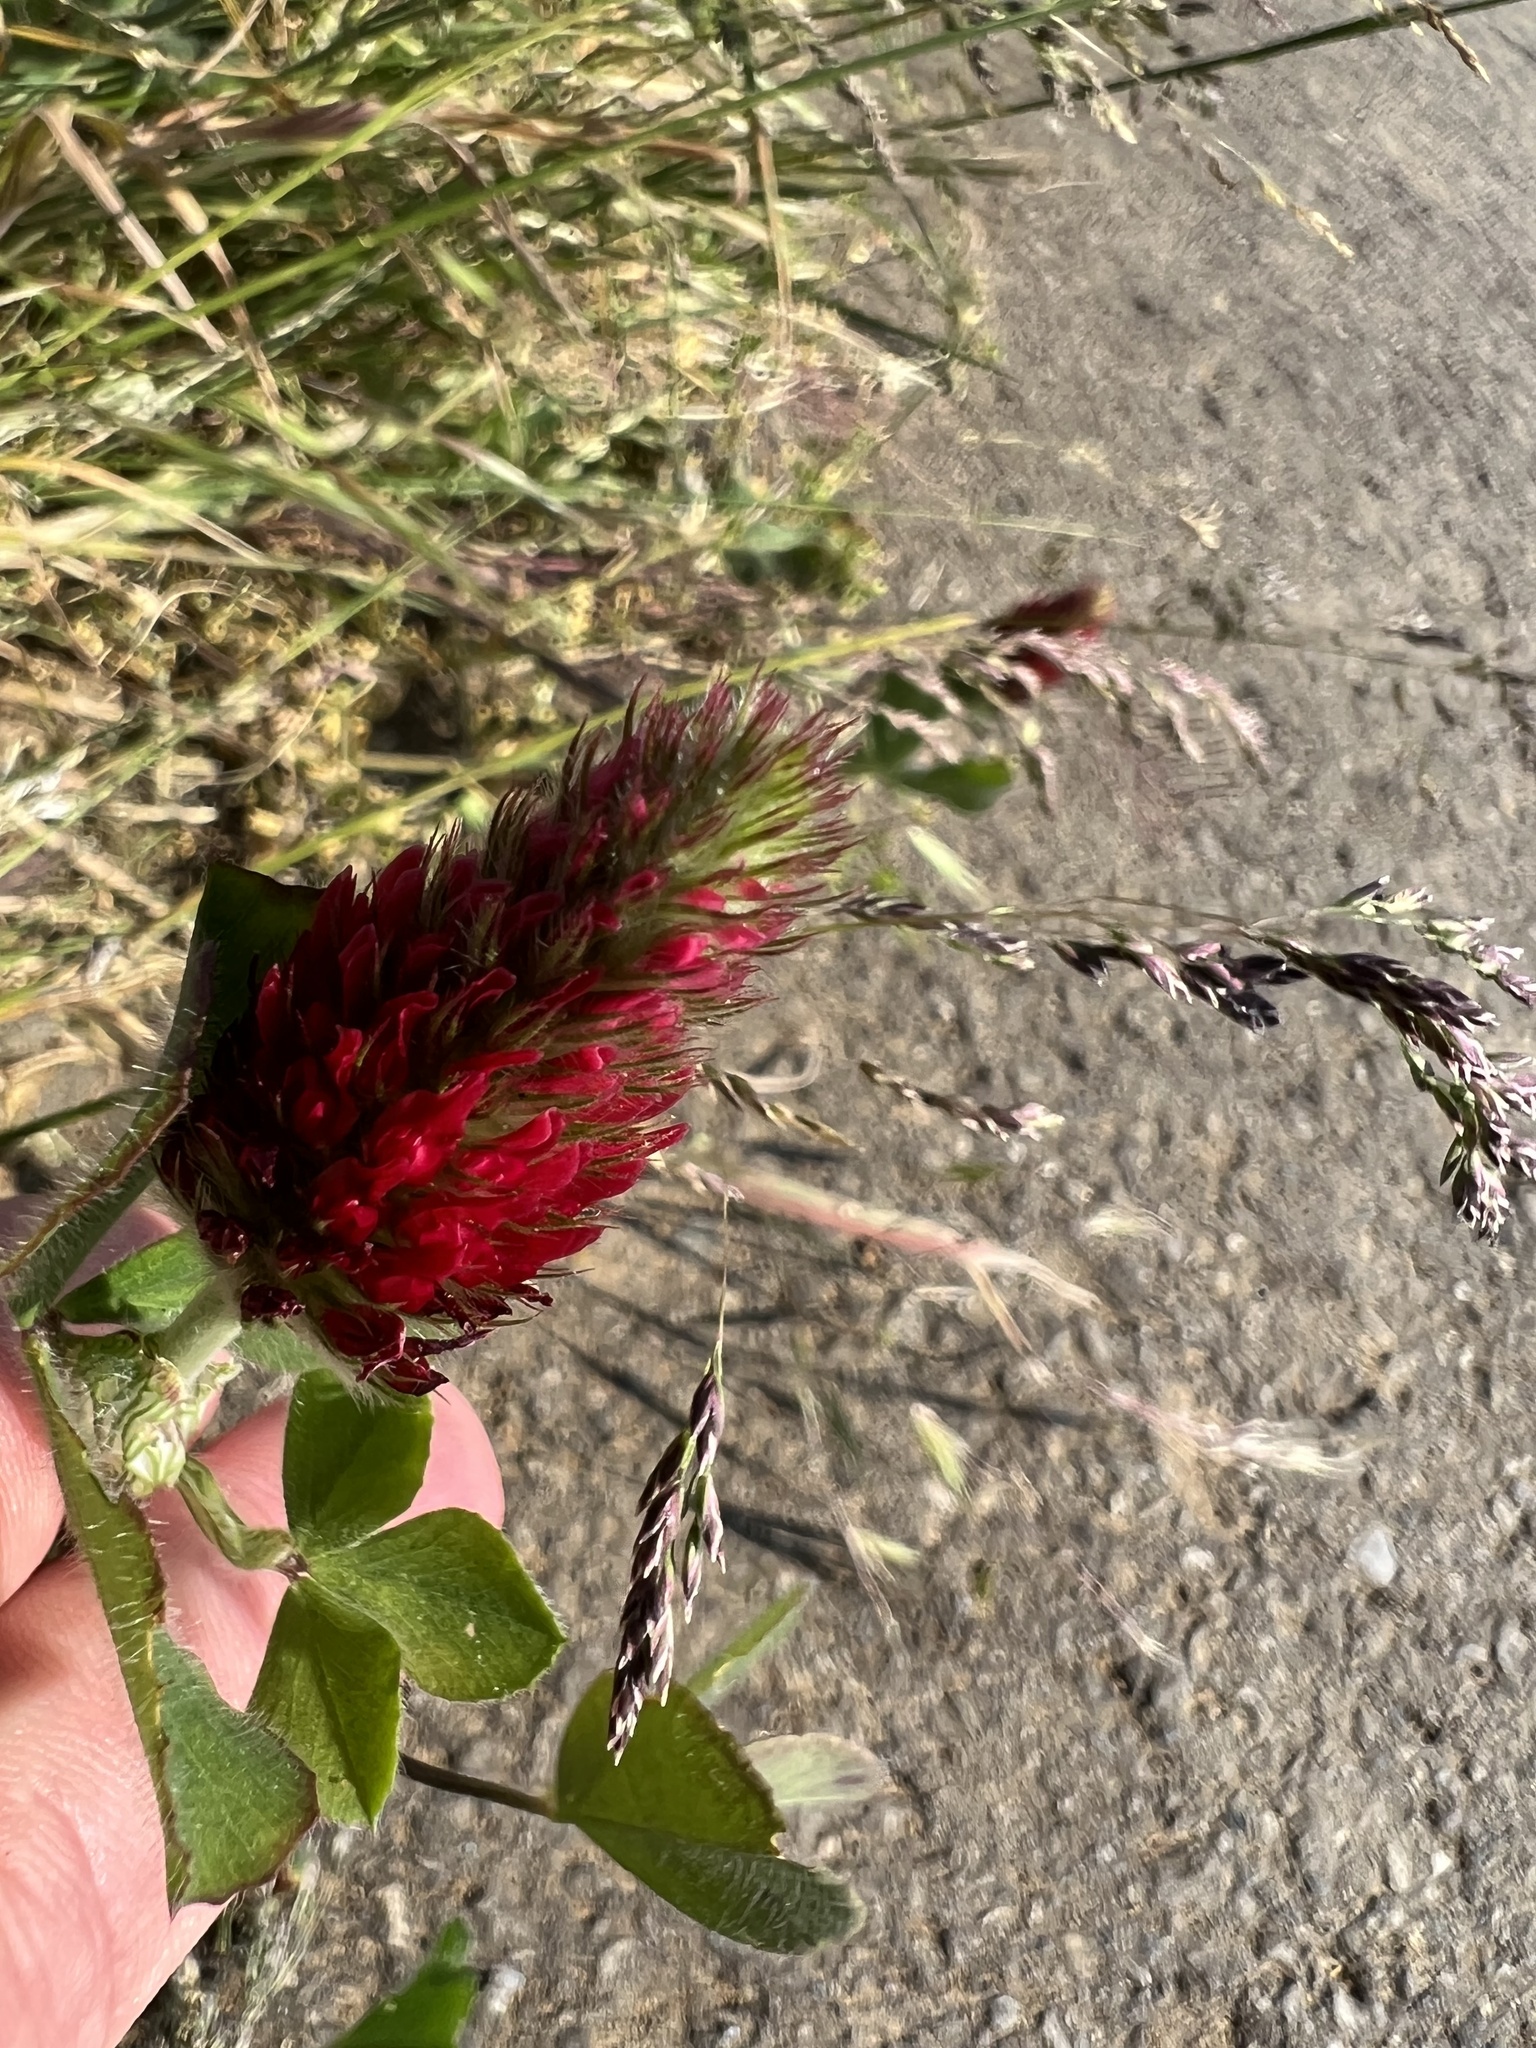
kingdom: Plantae
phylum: Tracheophyta
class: Magnoliopsida
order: Fabales
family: Fabaceae
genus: Trifolium
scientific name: Trifolium incarnatum
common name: Crimson clover
